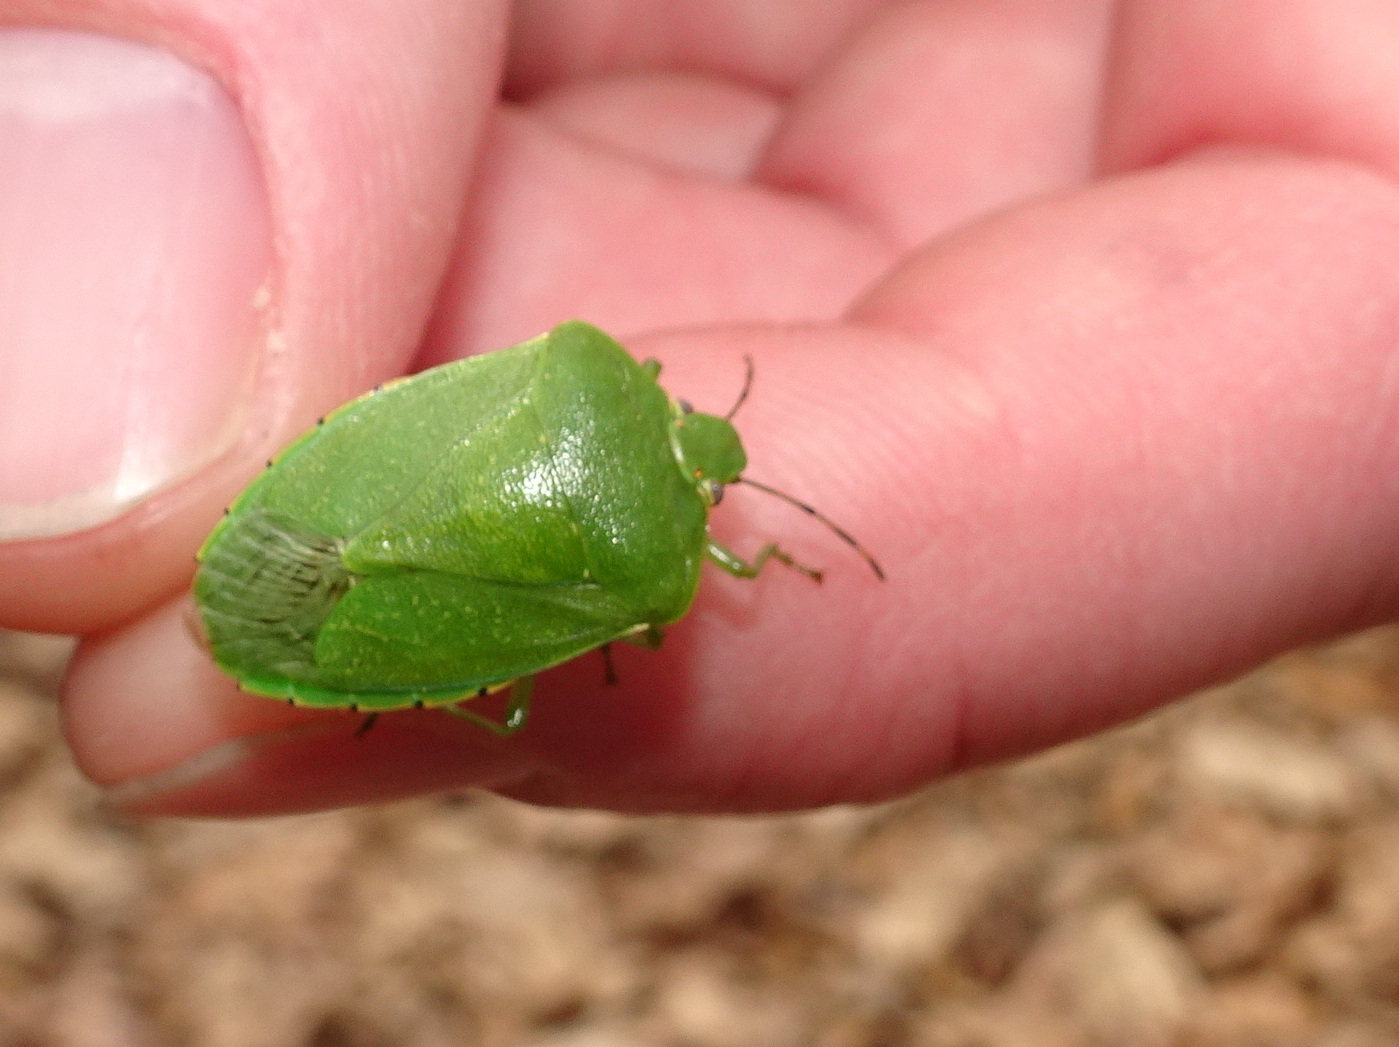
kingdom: Animalia
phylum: Arthropoda
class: Insecta
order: Hemiptera
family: Pentatomidae
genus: Chinavia
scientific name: Chinavia hilaris
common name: Green stink bug
